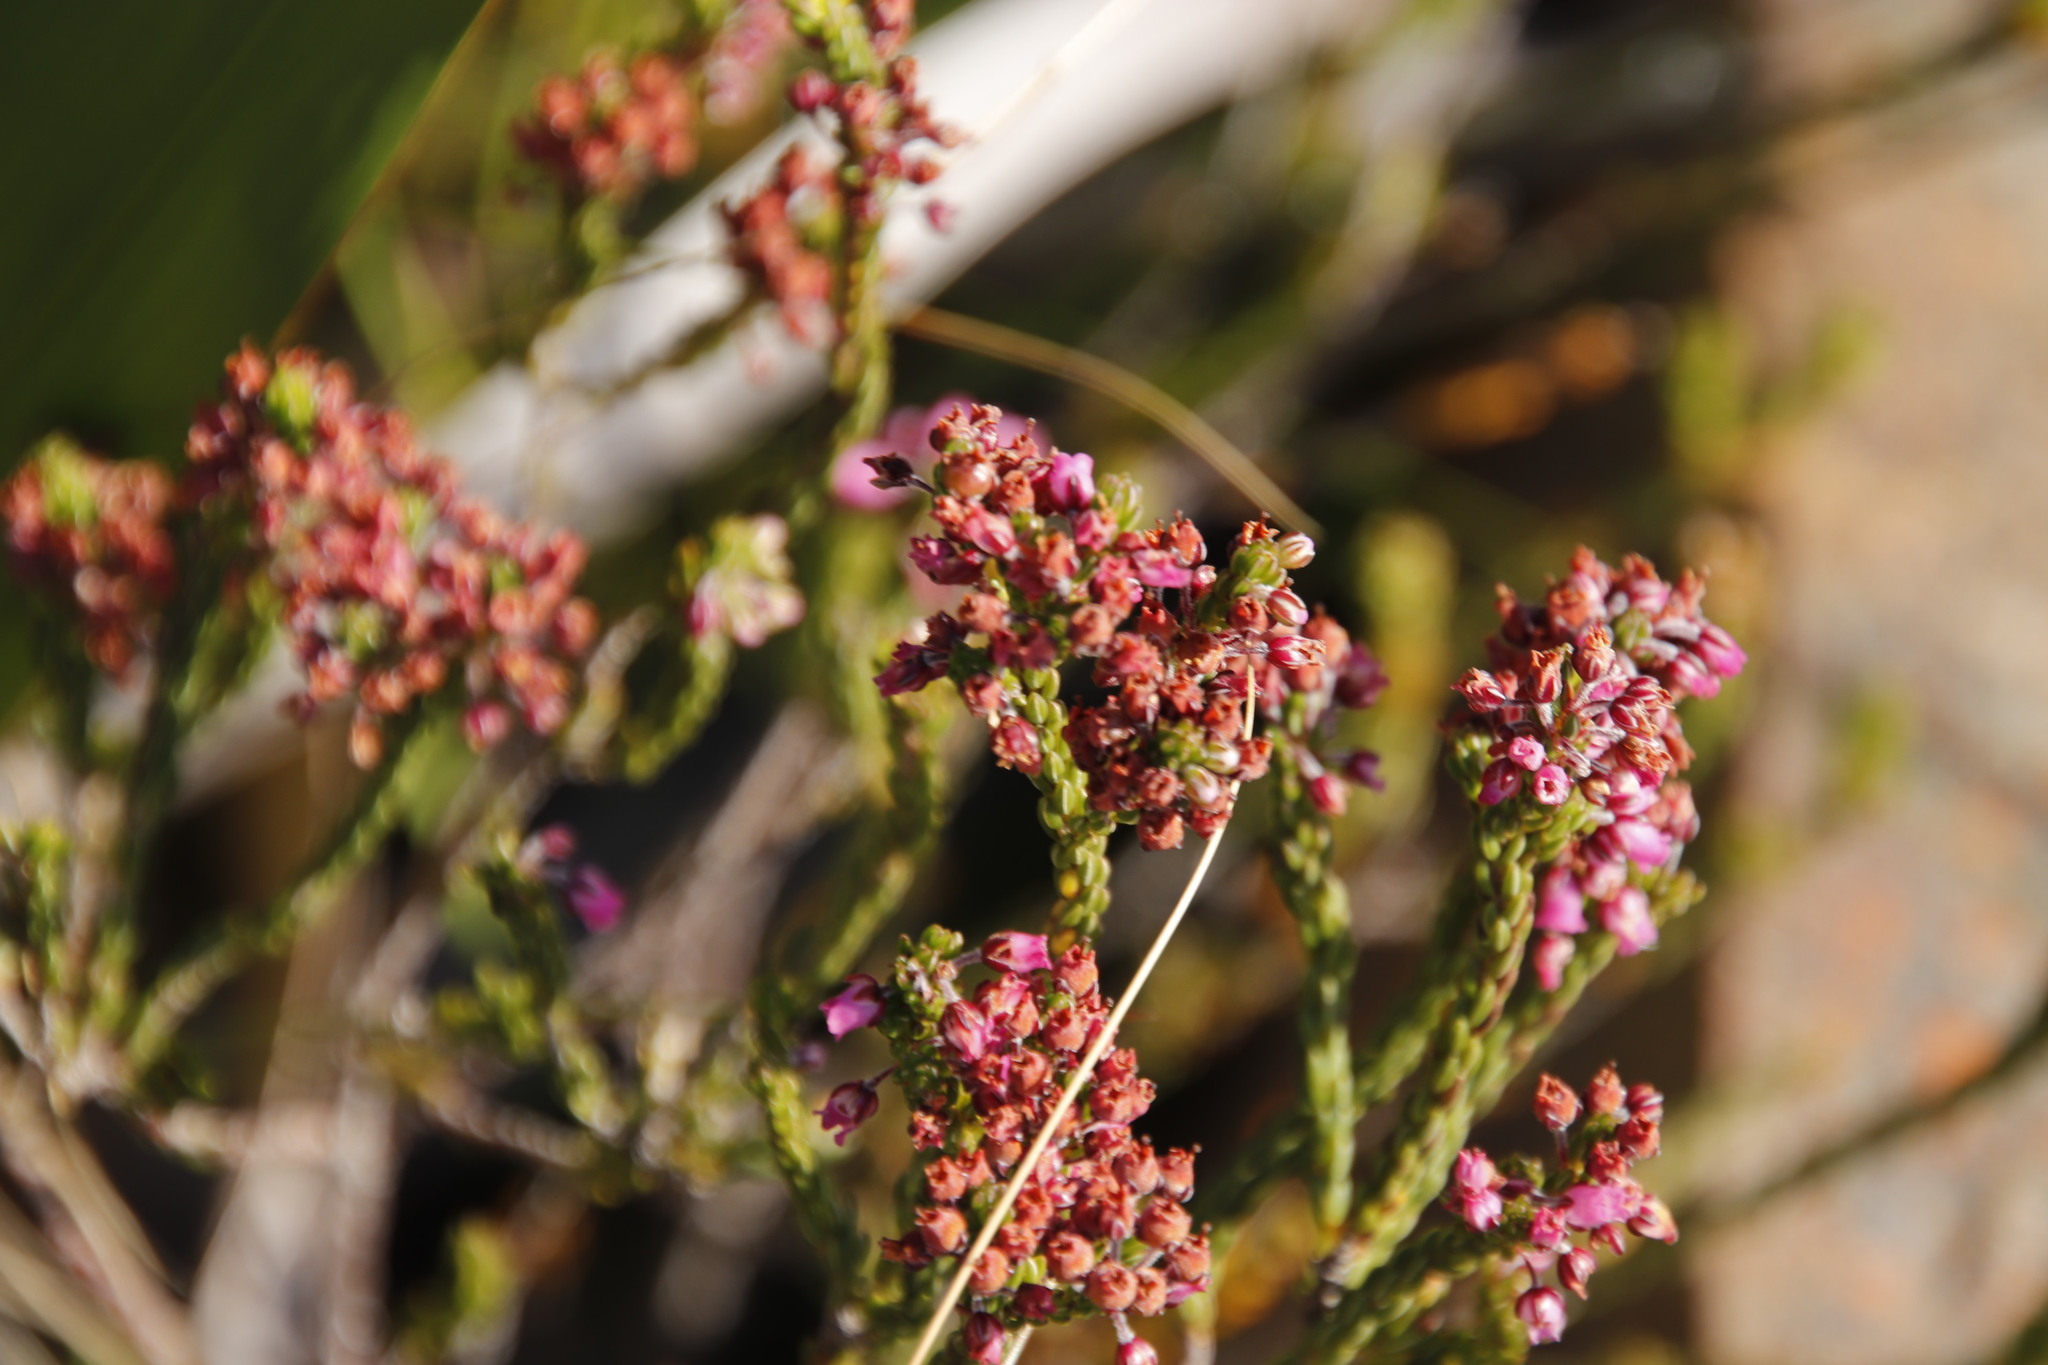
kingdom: Plantae
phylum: Tracheophyta
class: Magnoliopsida
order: Ericales
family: Ericaceae
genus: Erica
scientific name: Erica pulchella
